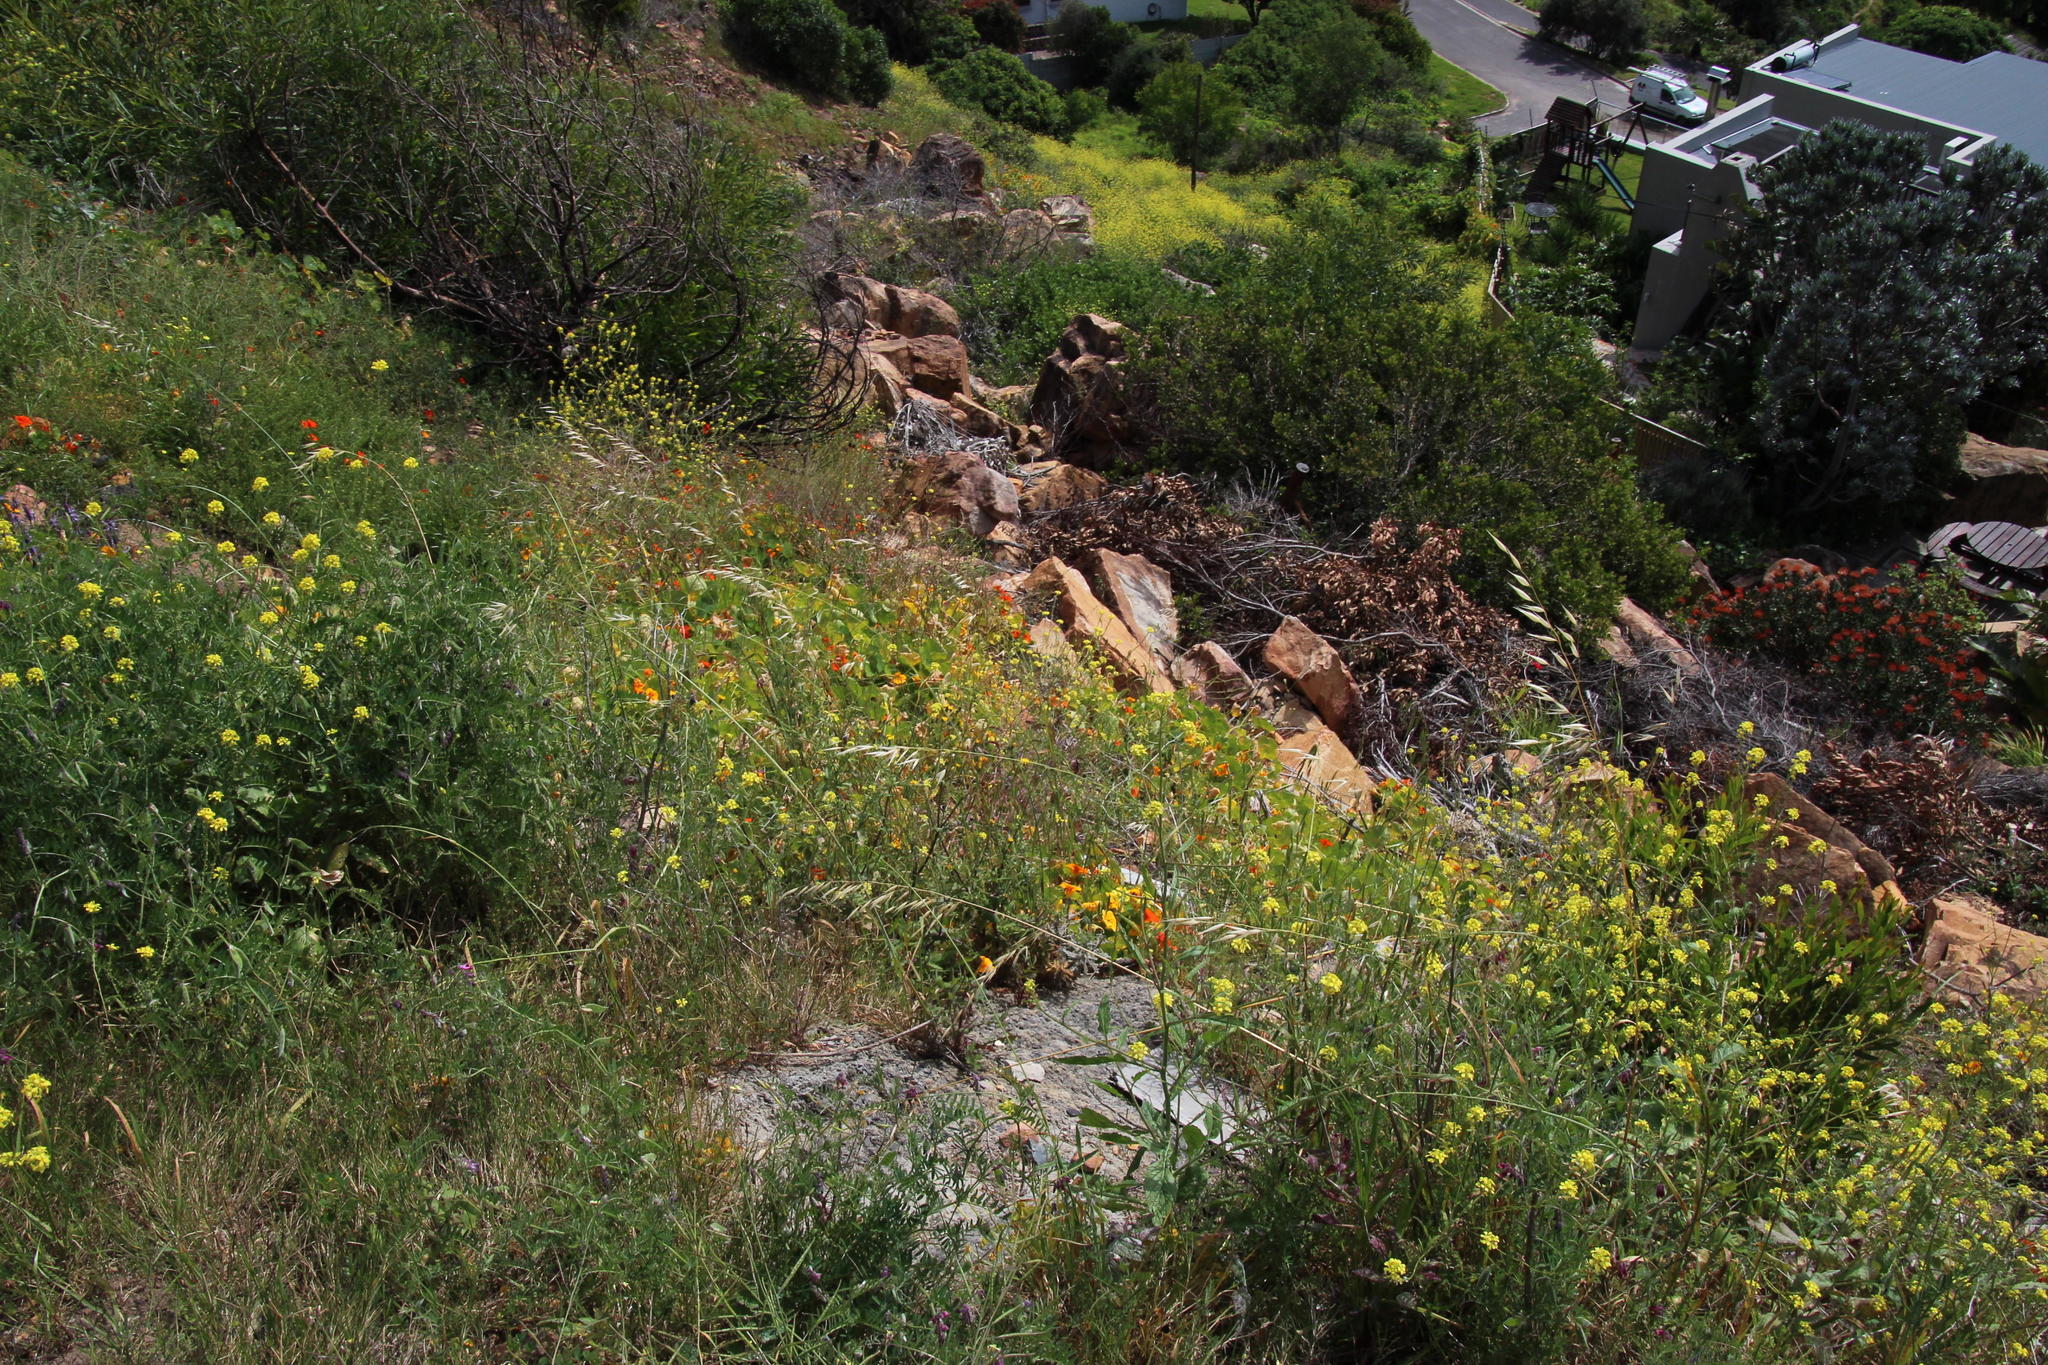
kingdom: Plantae
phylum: Tracheophyta
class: Magnoliopsida
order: Brassicales
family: Tropaeolaceae
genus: Tropaeolum
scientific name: Tropaeolum majus
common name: Nasturtium
